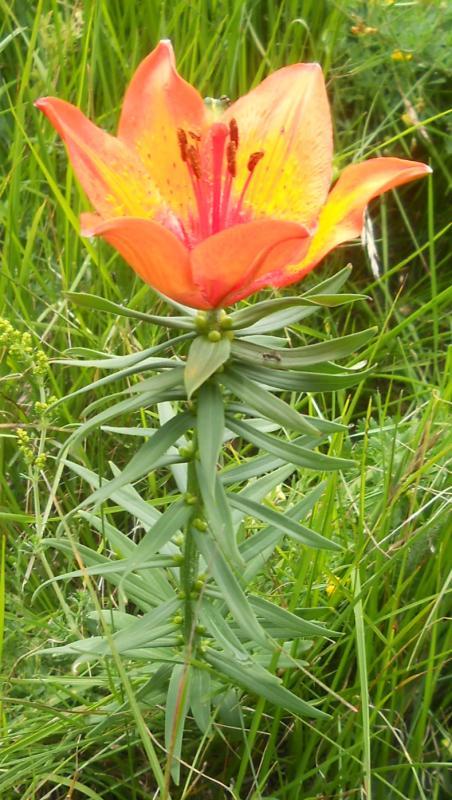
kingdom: Plantae
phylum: Tracheophyta
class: Liliopsida
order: Liliales
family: Liliaceae
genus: Lilium
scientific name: Lilium bulbiferum
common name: Orange lily
